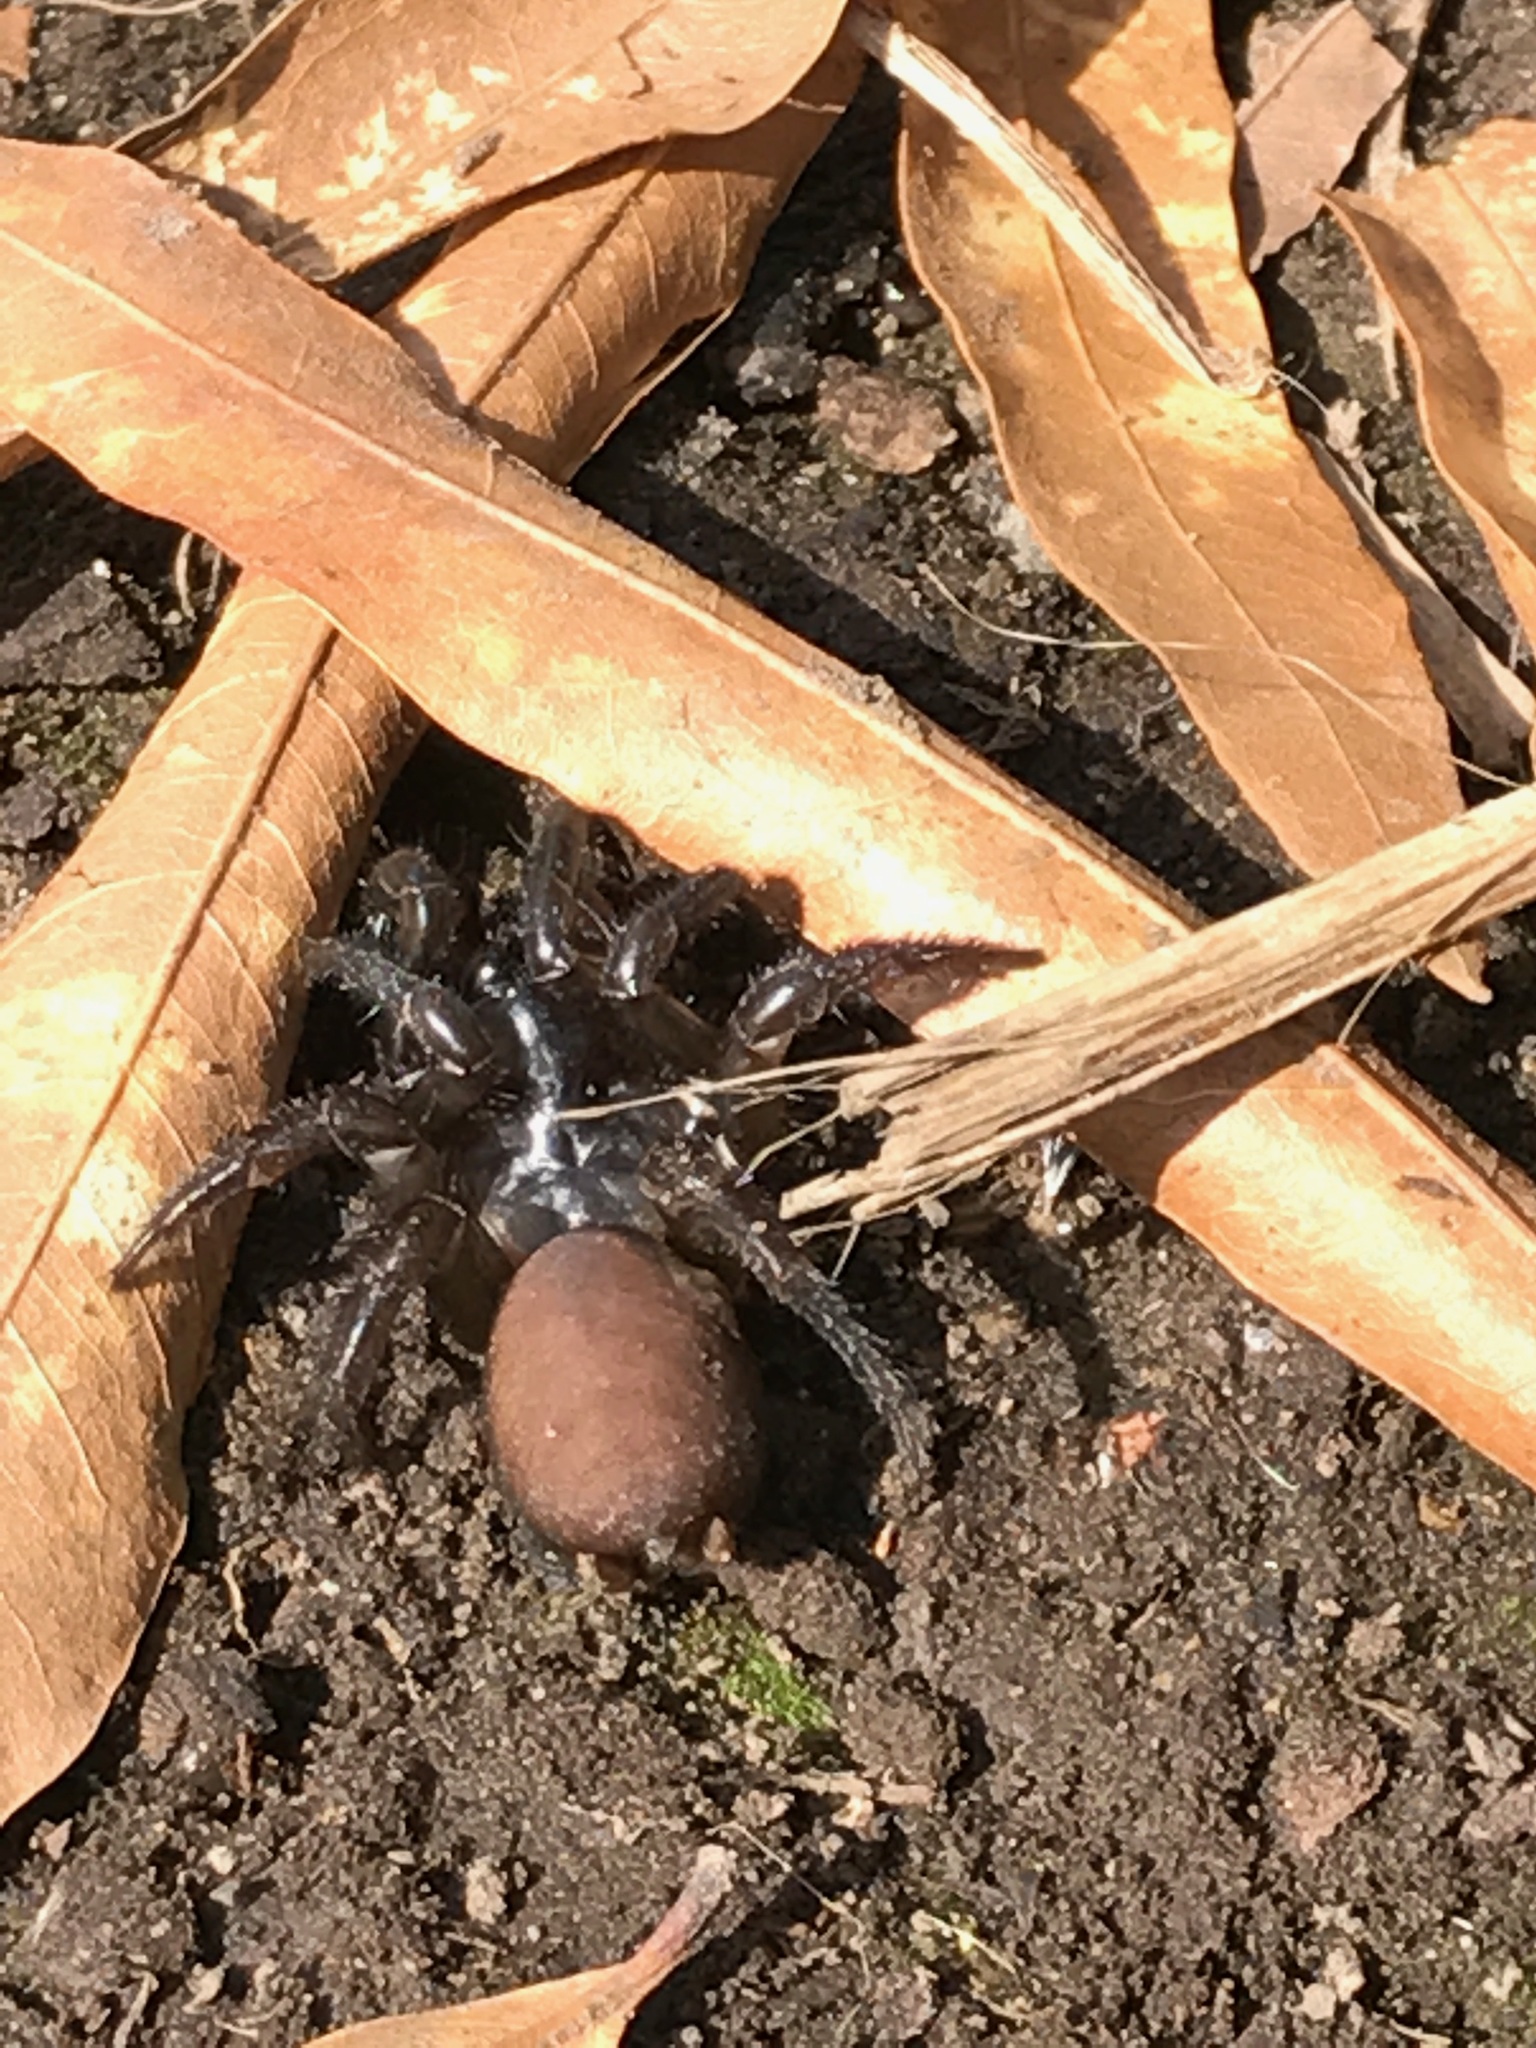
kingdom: Animalia
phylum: Arthropoda
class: Arachnida
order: Araneae
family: Antrodiaetidae
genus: Antrodiaetus
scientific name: Antrodiaetus pacificus
